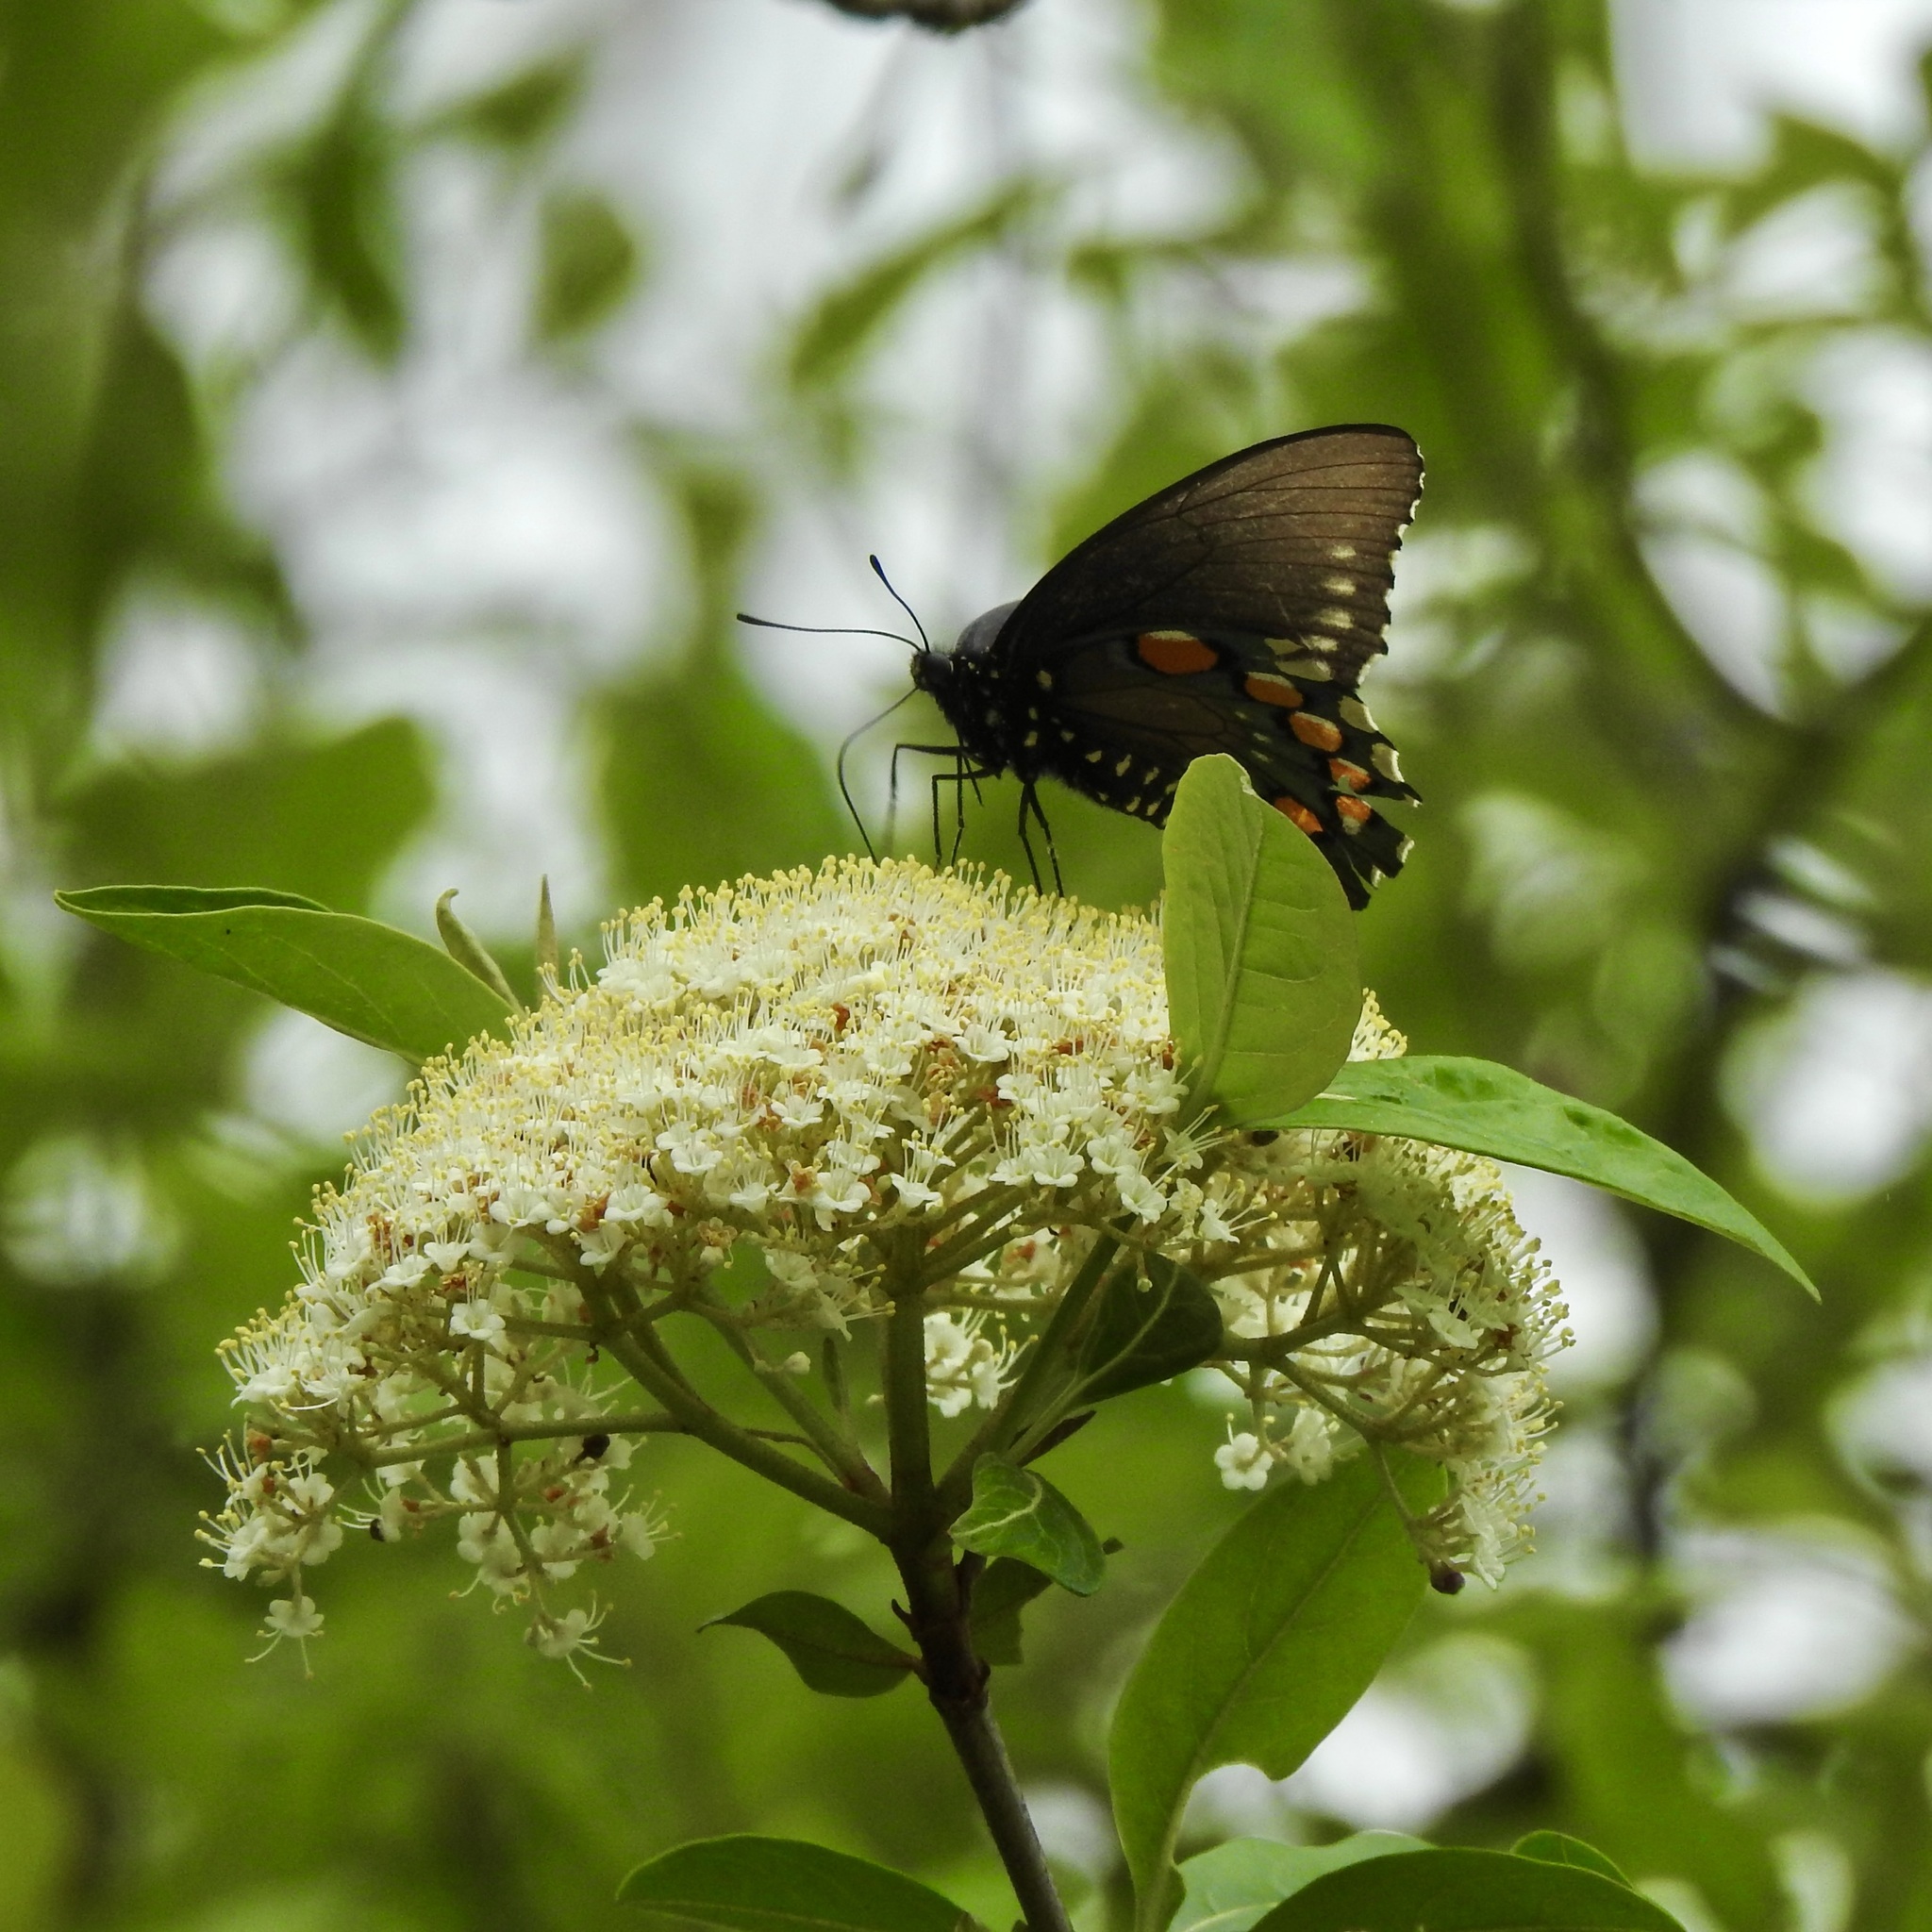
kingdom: Animalia
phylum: Arthropoda
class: Insecta
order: Lepidoptera
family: Papilionidae
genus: Battus
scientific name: Battus philenor
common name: Pipevine swallowtail
